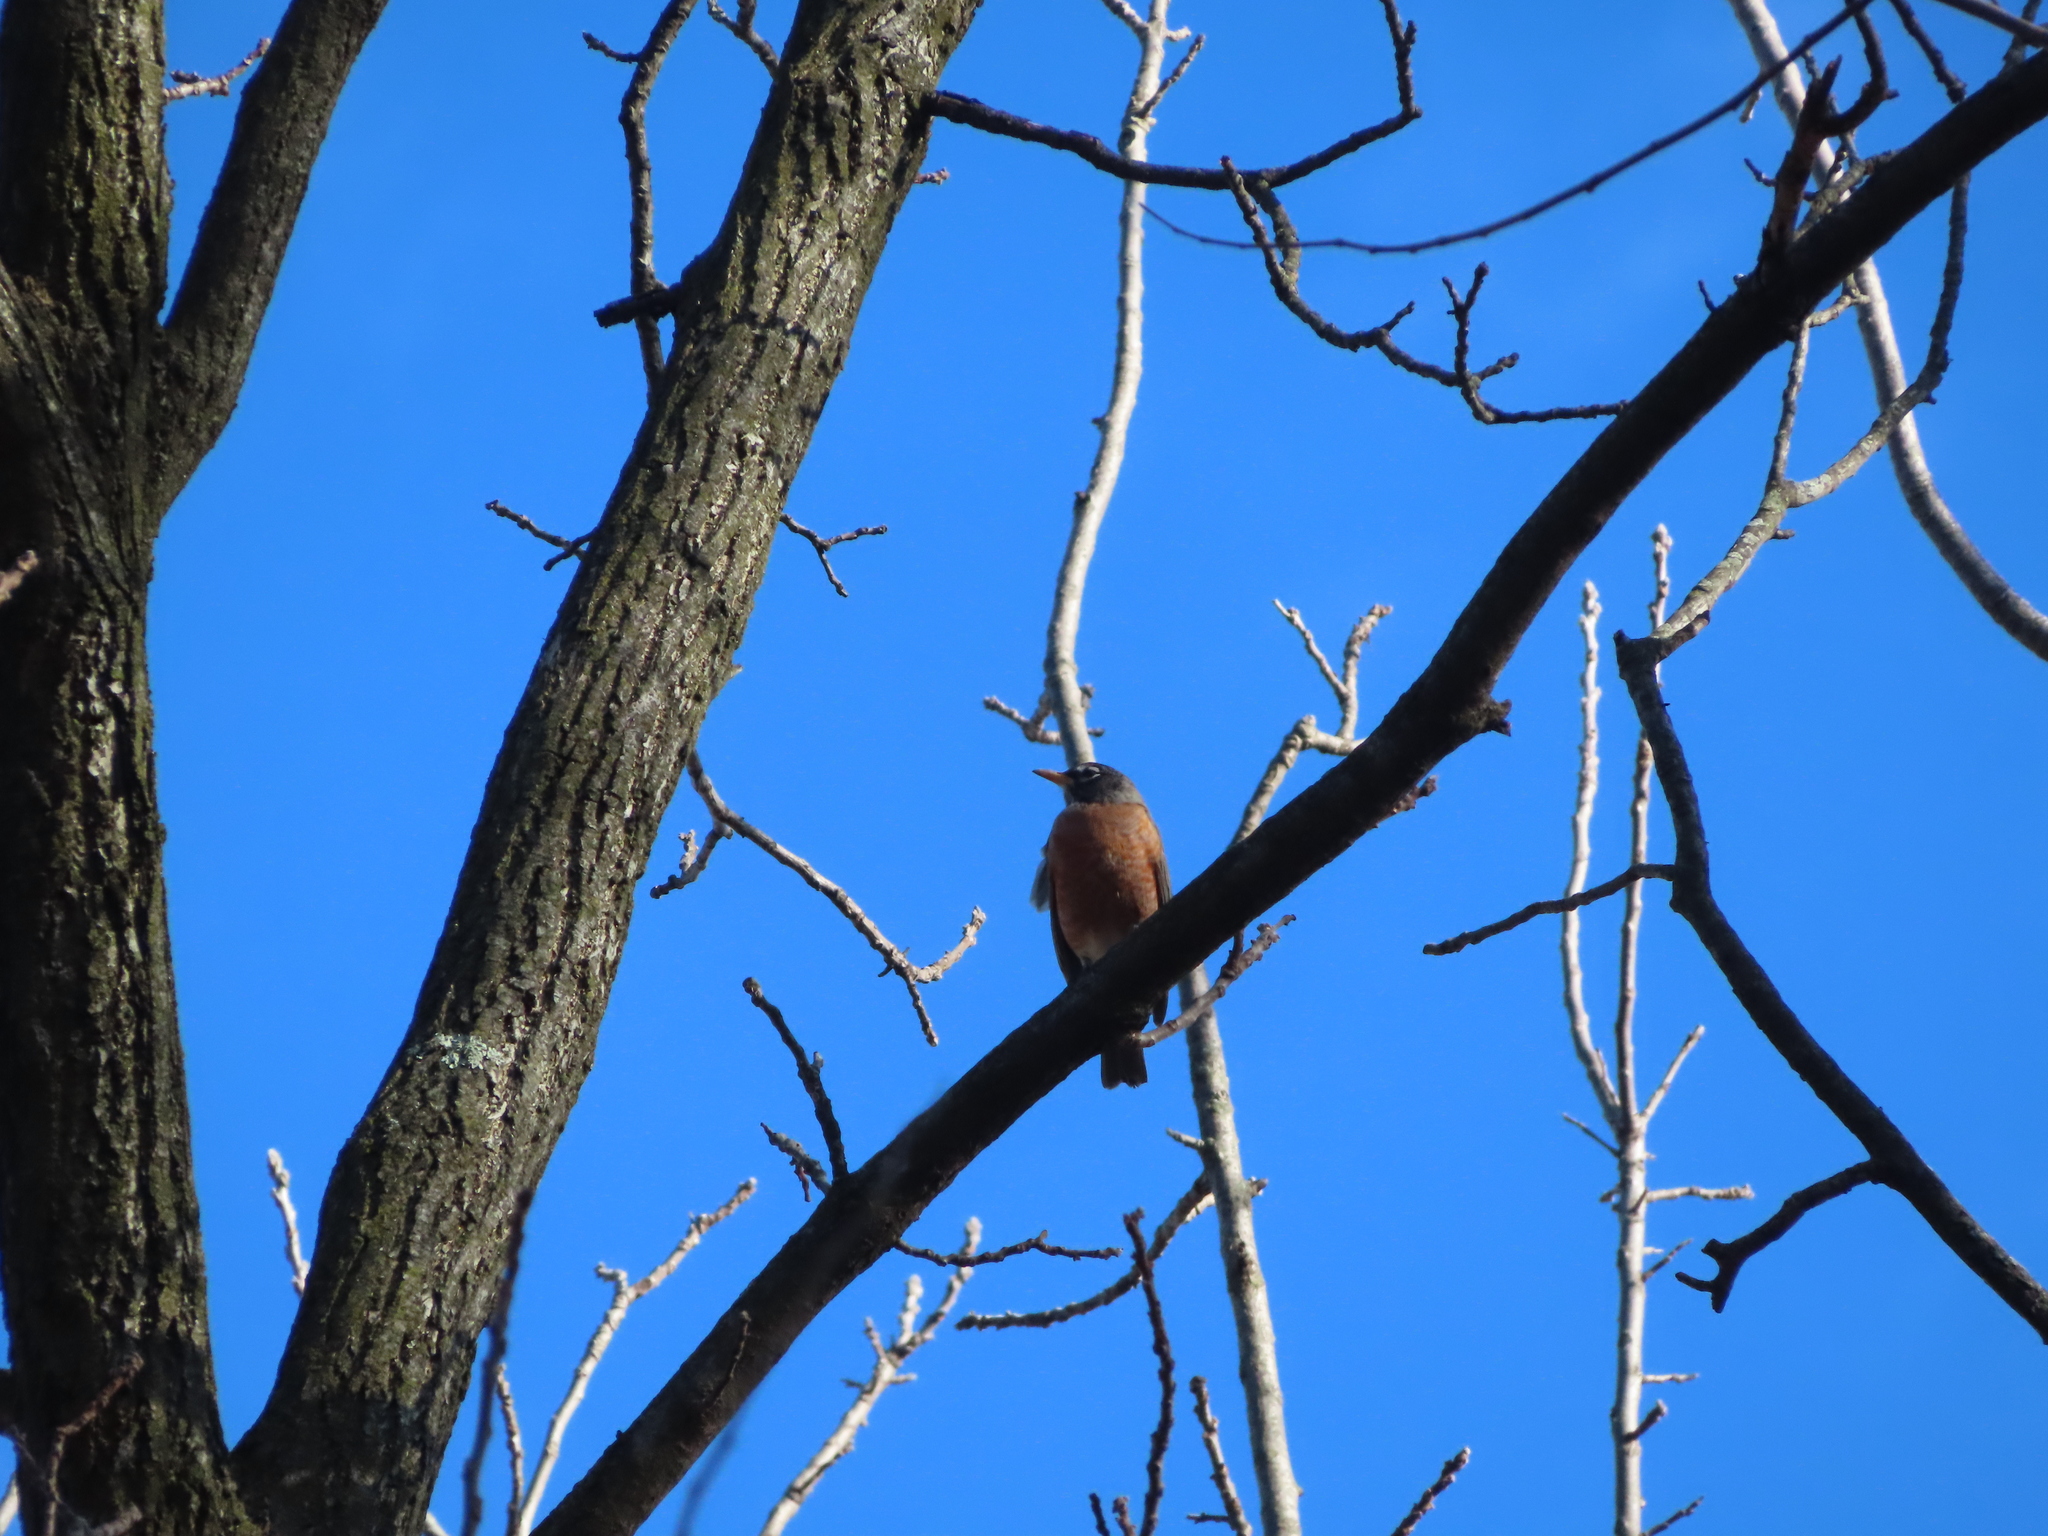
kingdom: Animalia
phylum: Chordata
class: Aves
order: Passeriformes
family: Turdidae
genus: Turdus
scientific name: Turdus migratorius
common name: American robin
